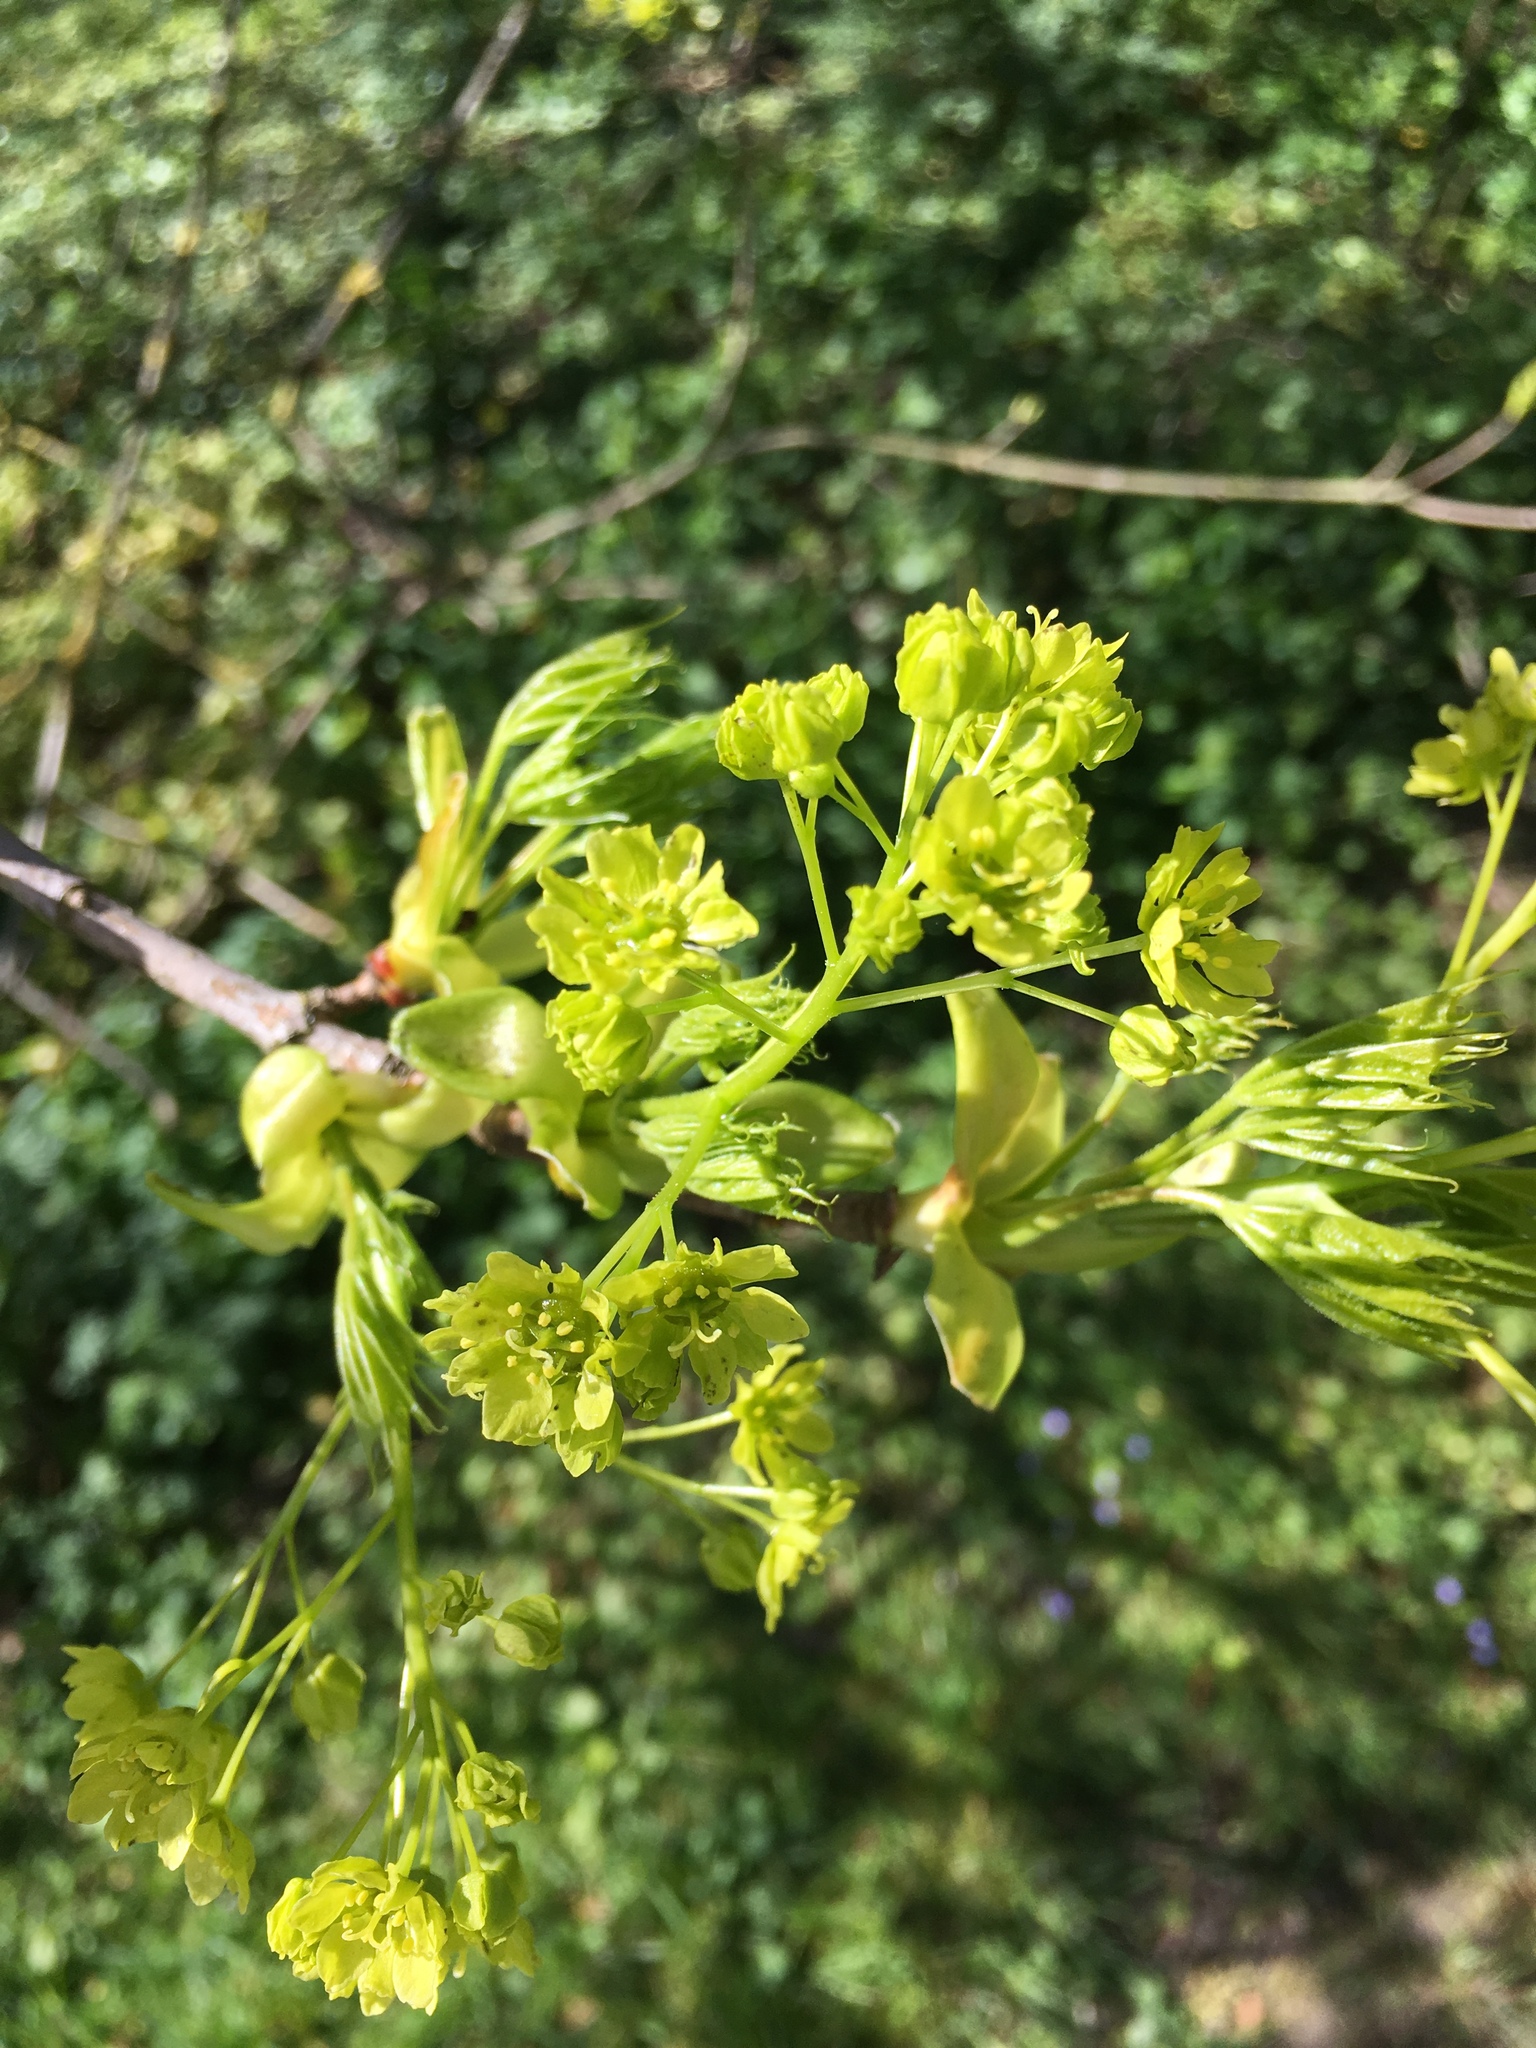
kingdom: Plantae
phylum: Tracheophyta
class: Magnoliopsida
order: Sapindales
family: Sapindaceae
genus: Acer
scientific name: Acer platanoides
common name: Norway maple
